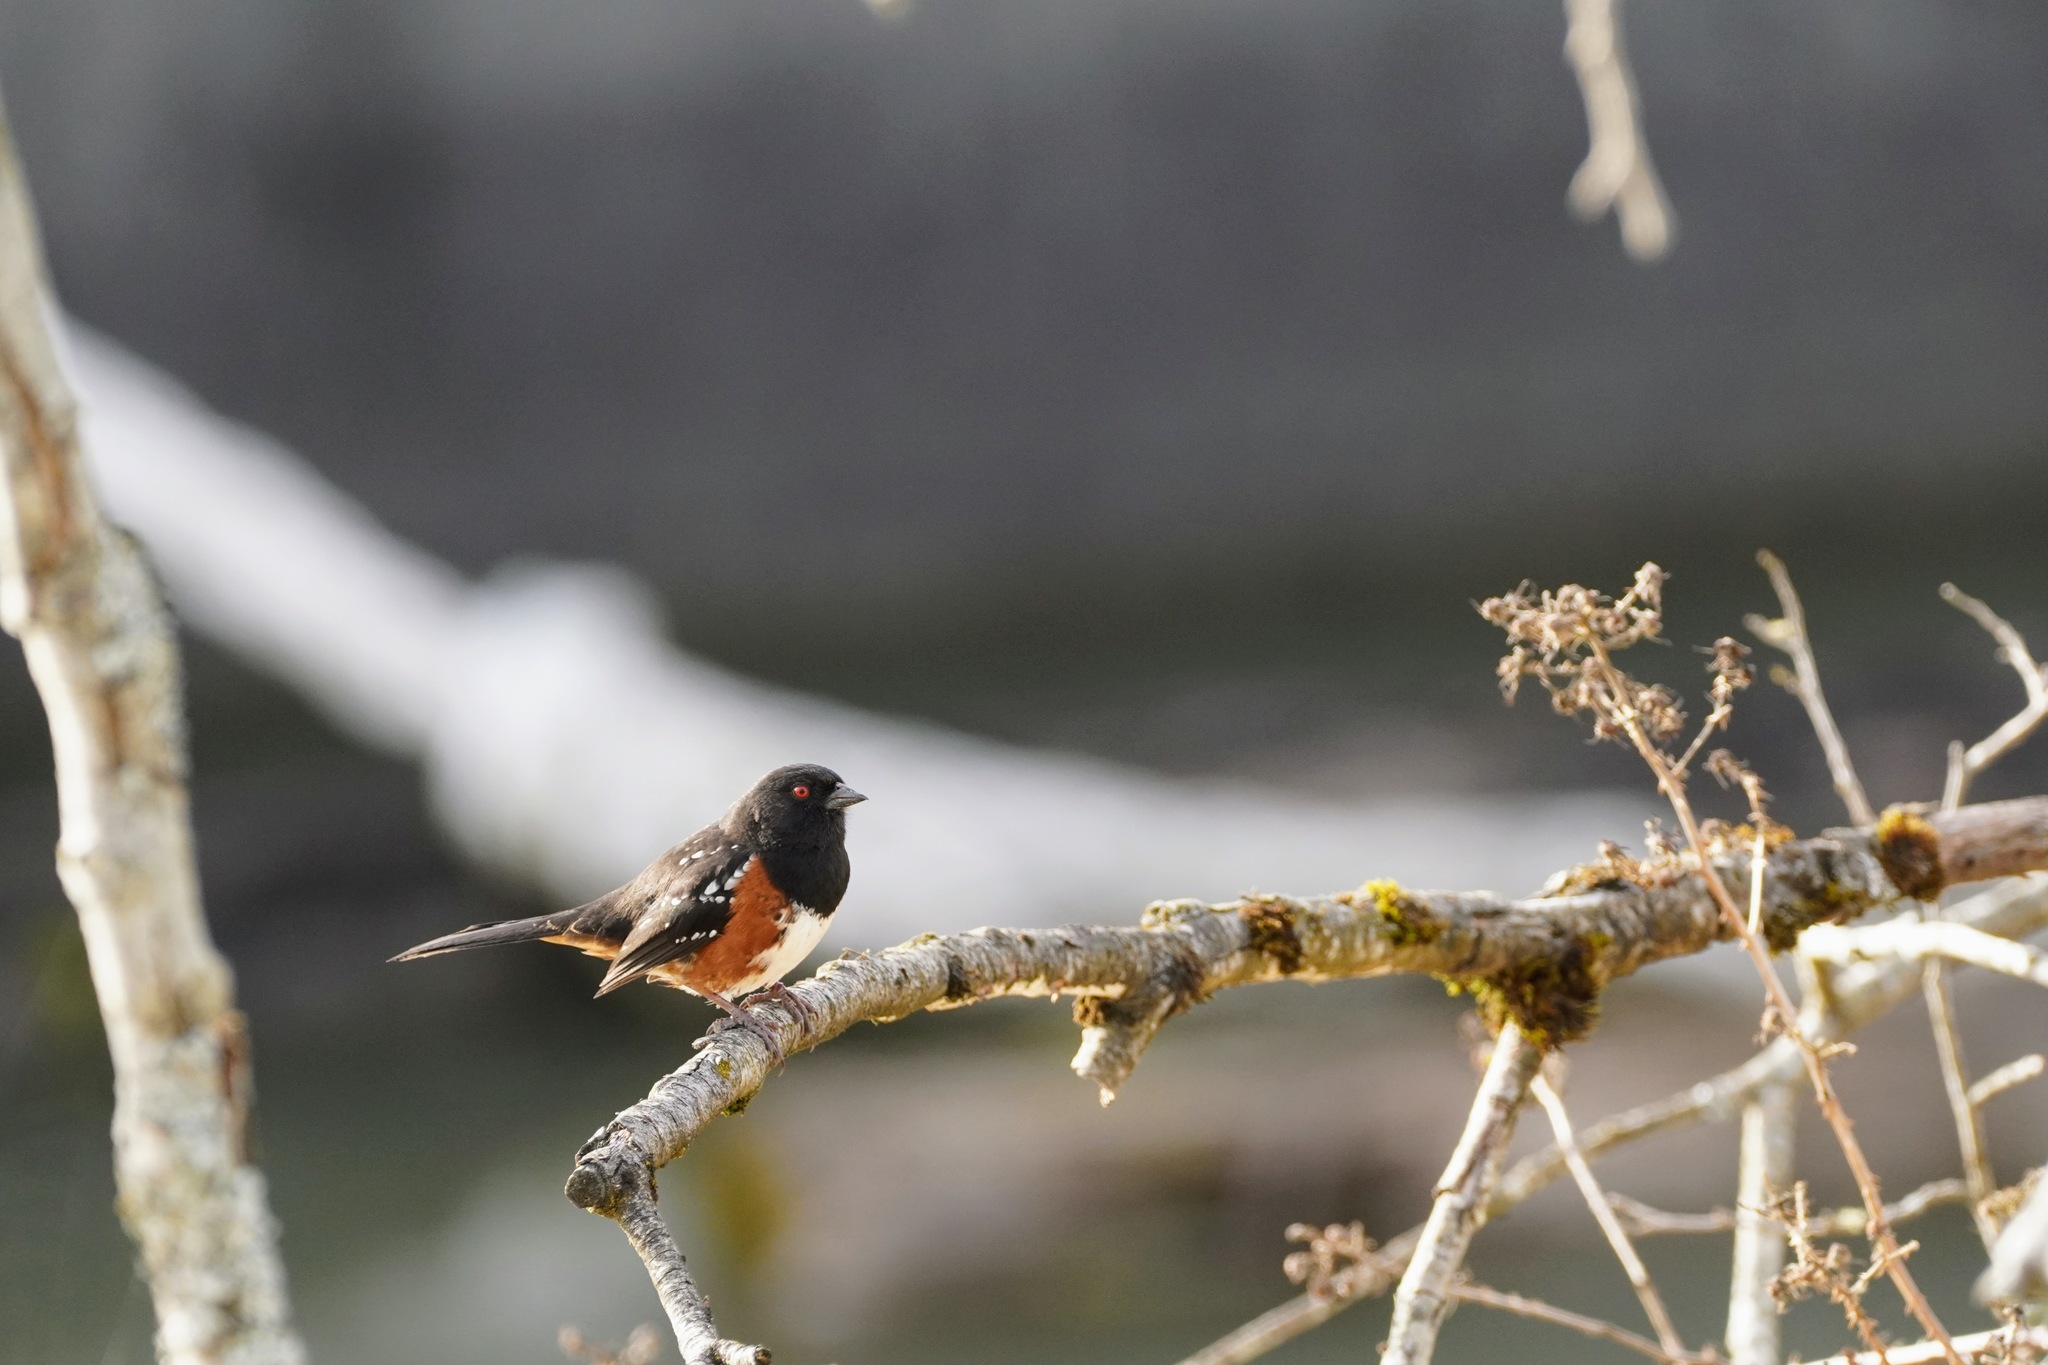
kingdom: Animalia
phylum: Chordata
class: Aves
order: Passeriformes
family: Passerellidae
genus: Pipilo
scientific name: Pipilo maculatus
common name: Spotted towhee
